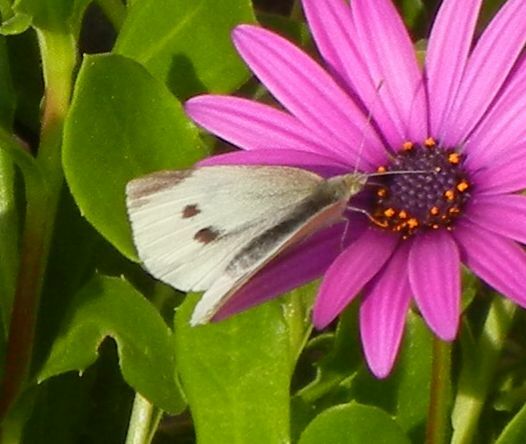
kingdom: Animalia
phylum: Arthropoda
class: Insecta
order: Lepidoptera
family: Pieridae
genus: Pieris
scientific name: Pieris rapae
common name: Small white
